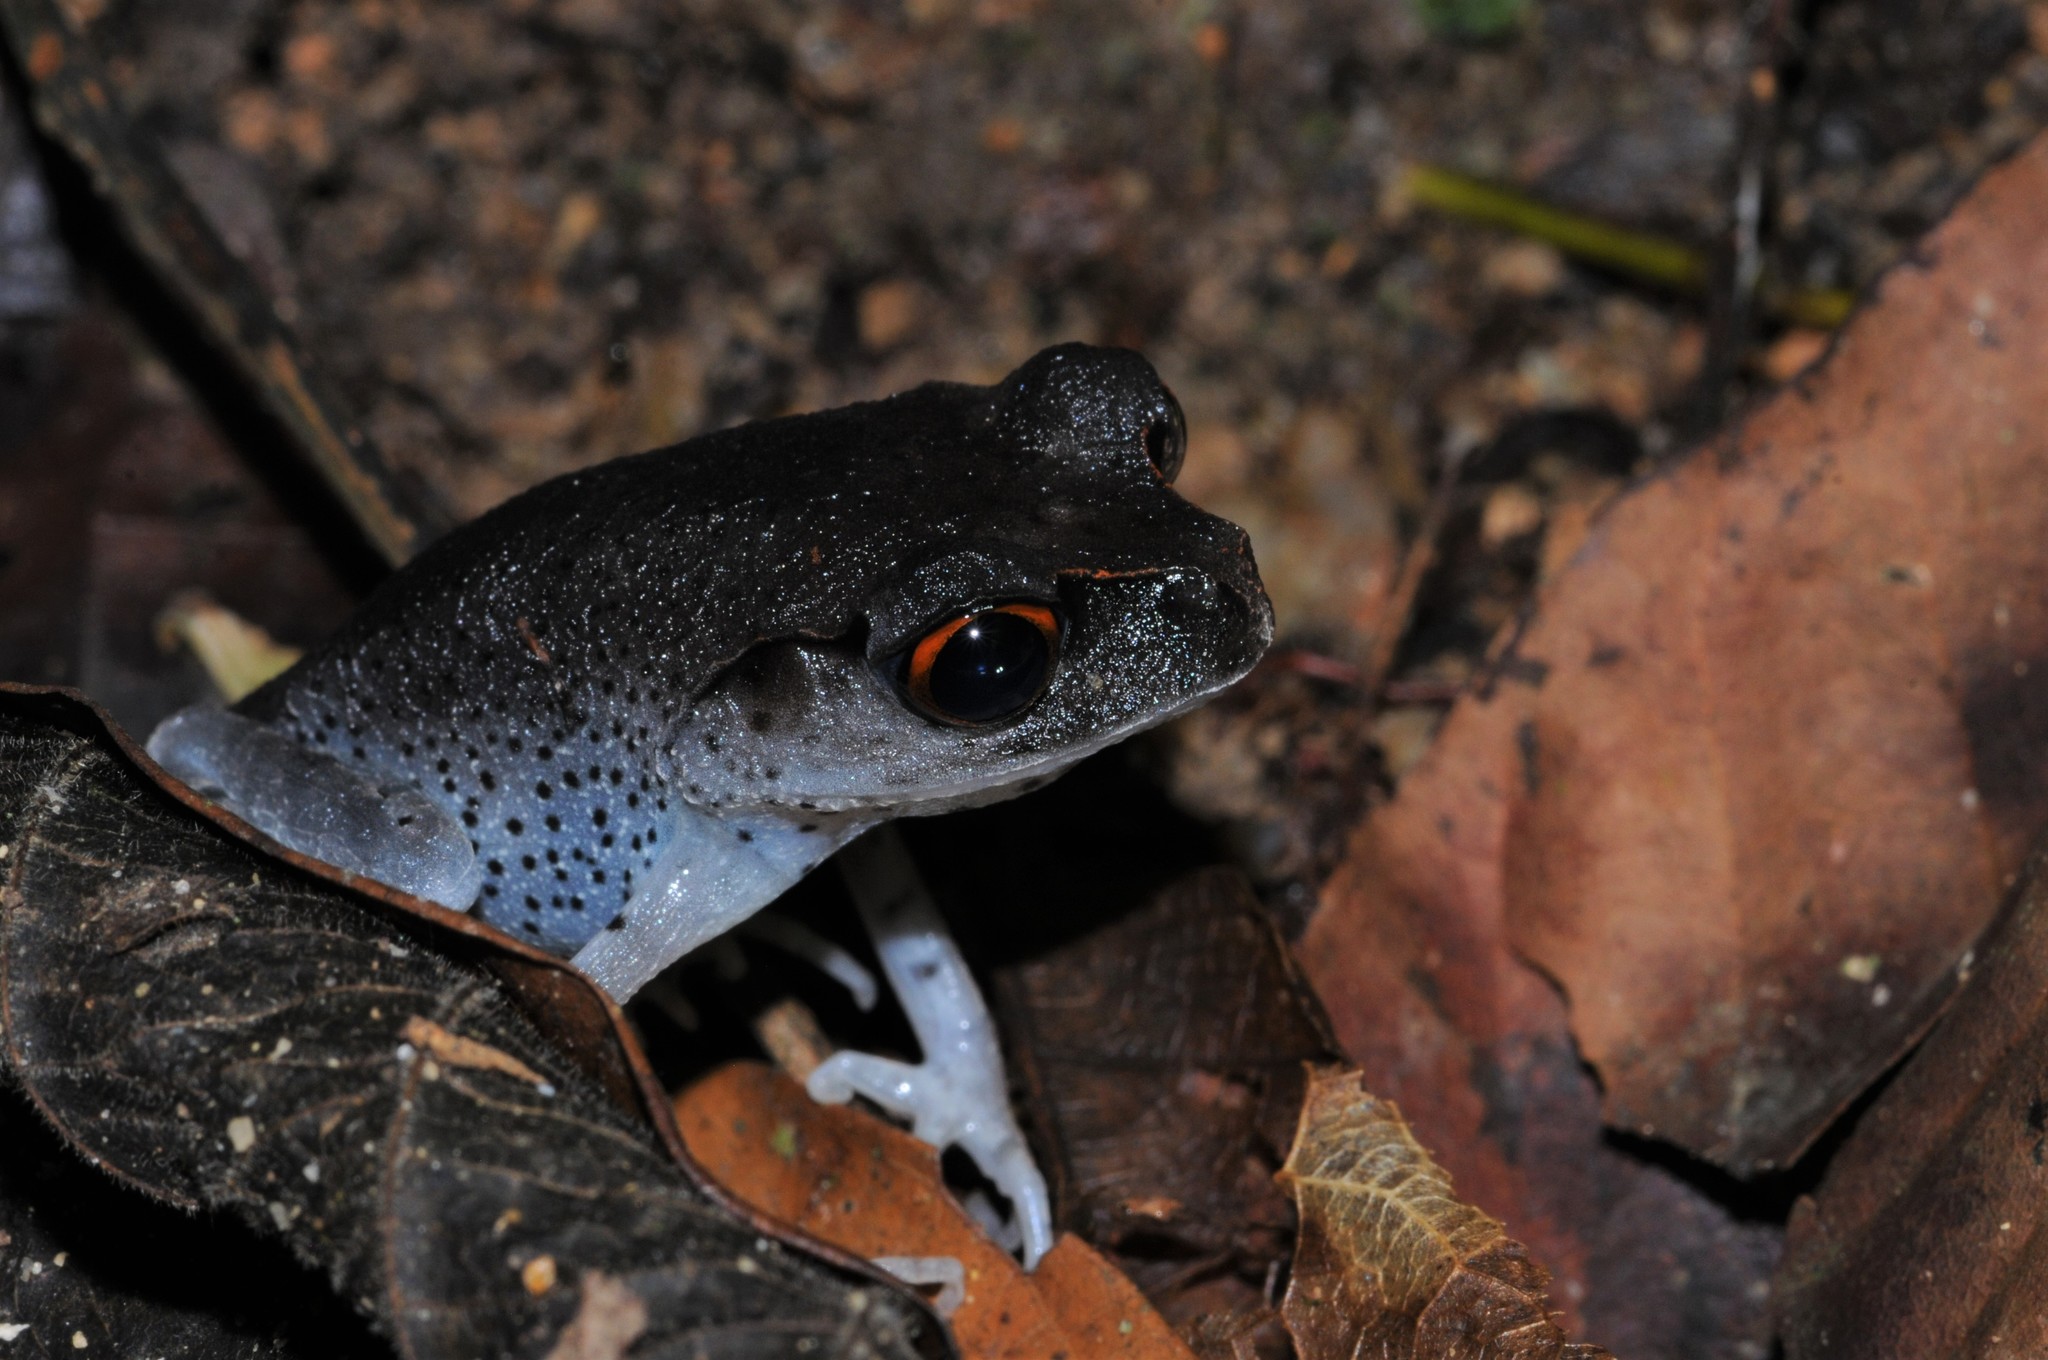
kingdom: Animalia
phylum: Chordata
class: Amphibia
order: Anura
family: Megophryidae
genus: Leptobrachium
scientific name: Leptobrachium hendricksoni
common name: Spotted litter frog
